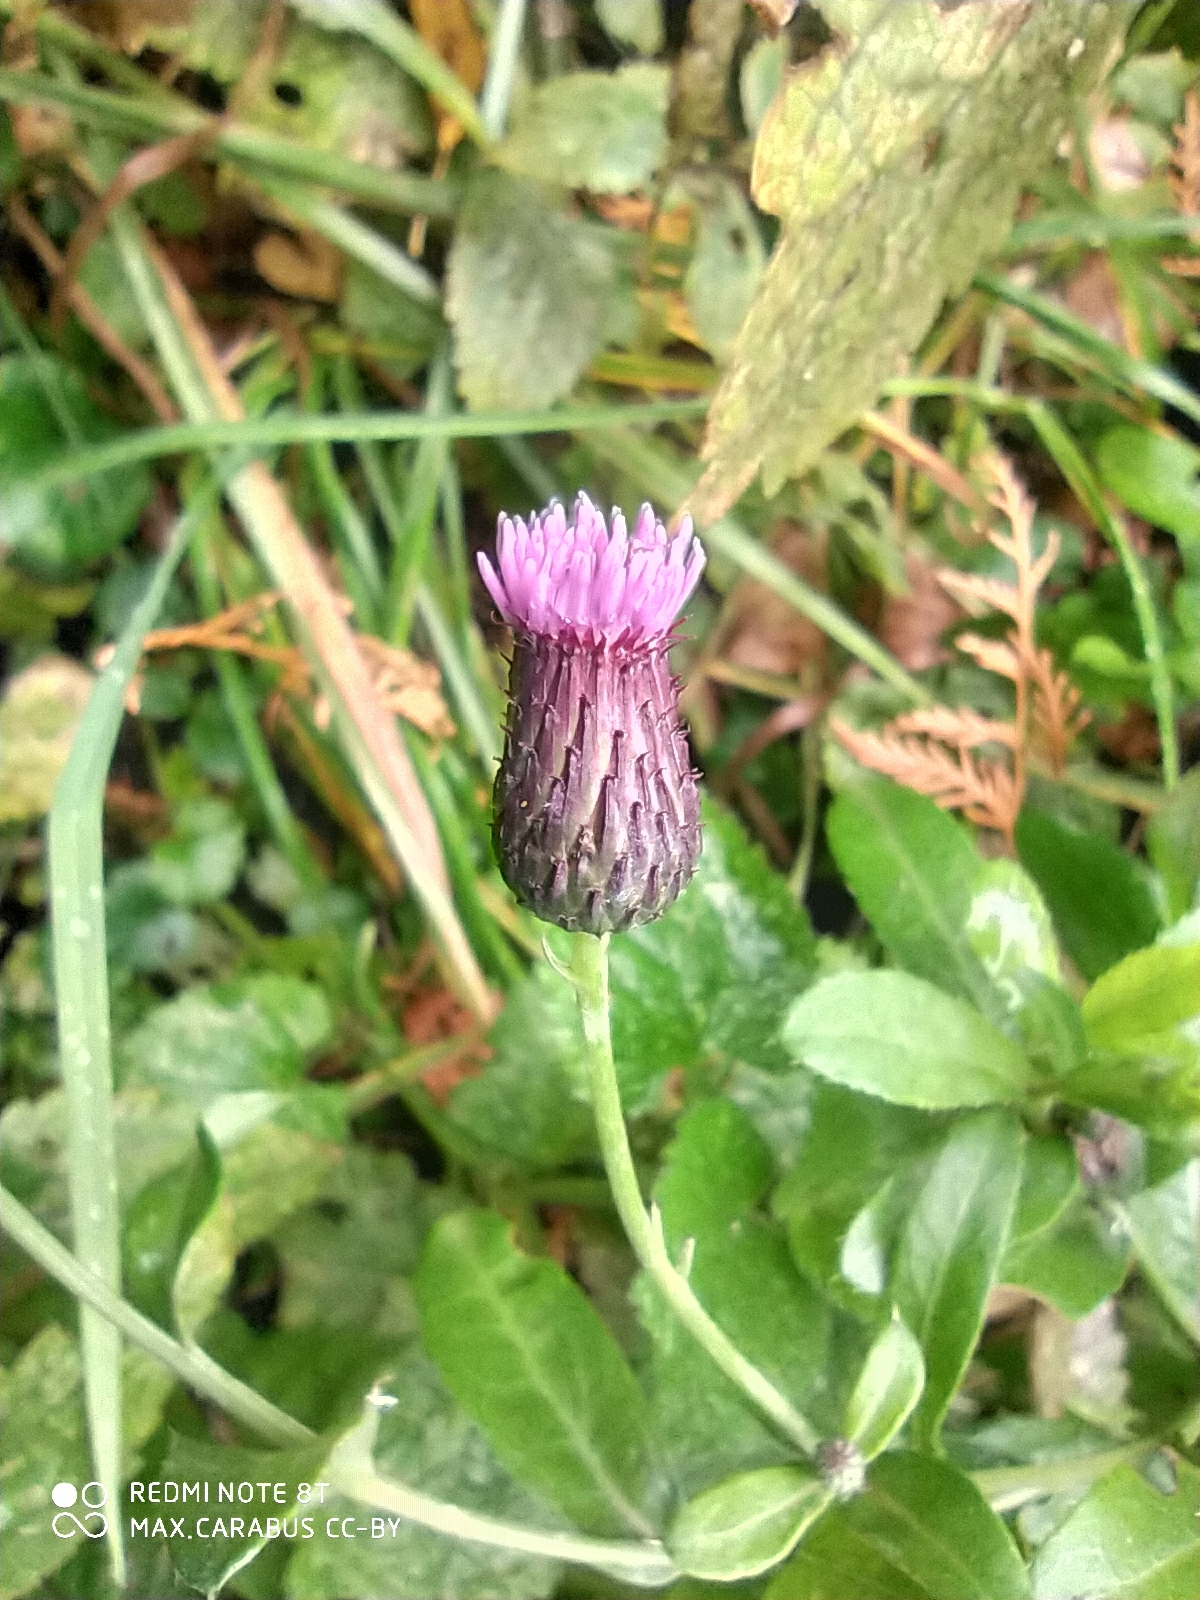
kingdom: Plantae
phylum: Tracheophyta
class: Magnoliopsida
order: Asterales
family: Asteraceae
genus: Cirsium
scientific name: Cirsium arvense
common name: Creeping thistle
